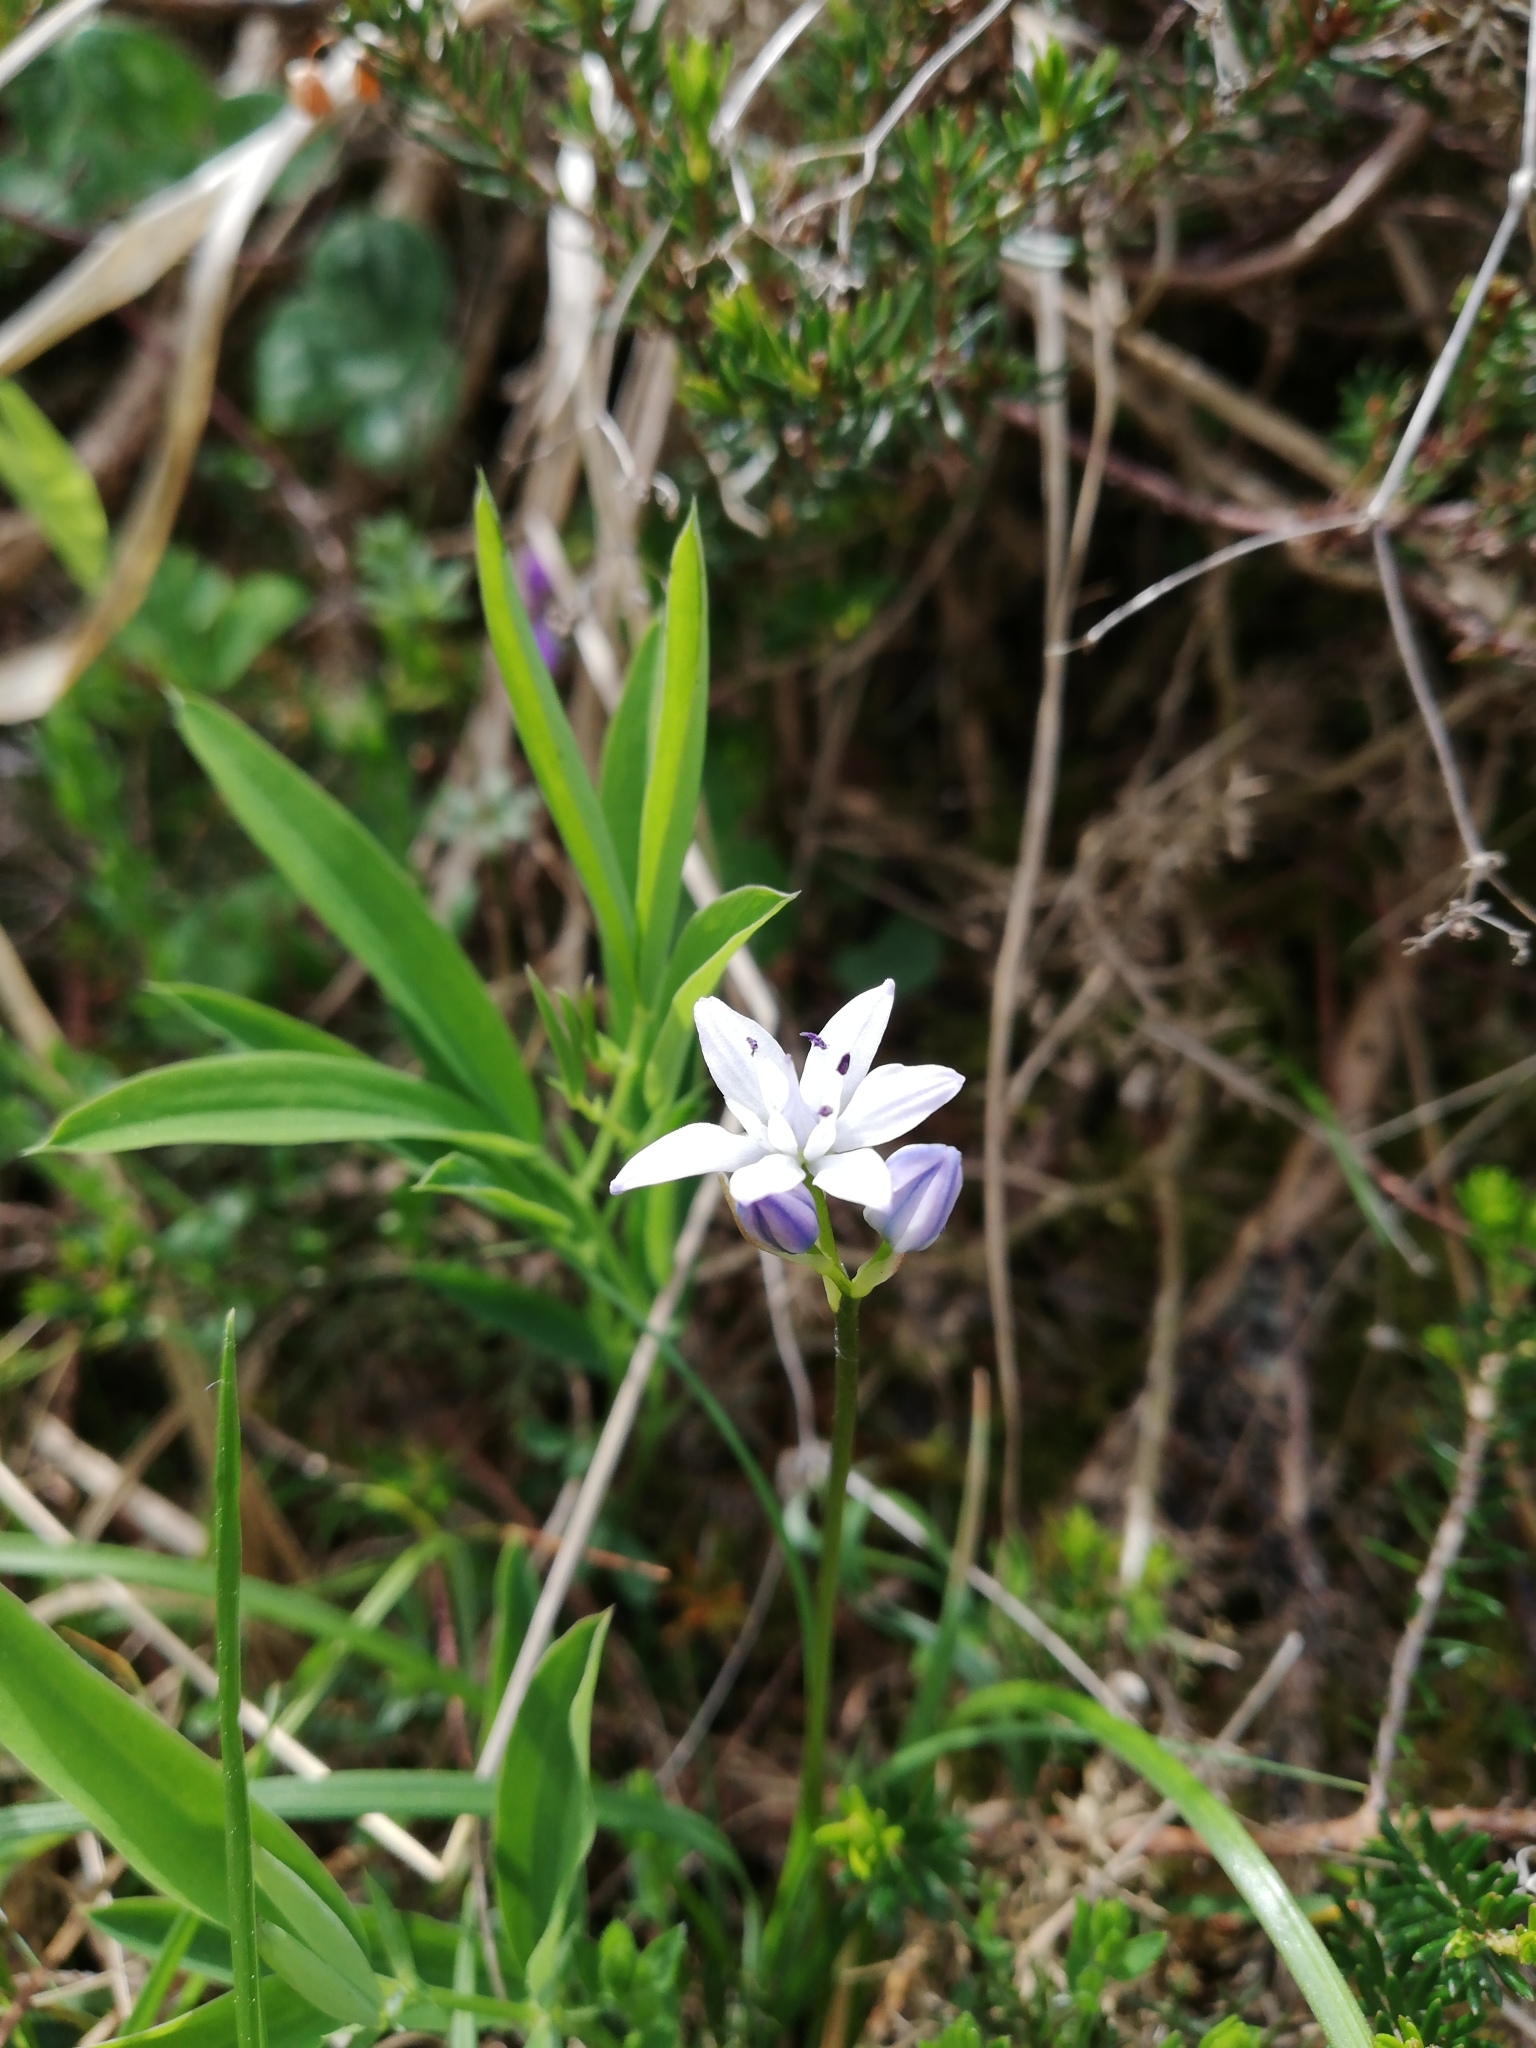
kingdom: Plantae
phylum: Tracheophyta
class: Liliopsida
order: Asparagales
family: Asparagaceae
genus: Scilla
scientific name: Scilla verna
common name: Spring squill
